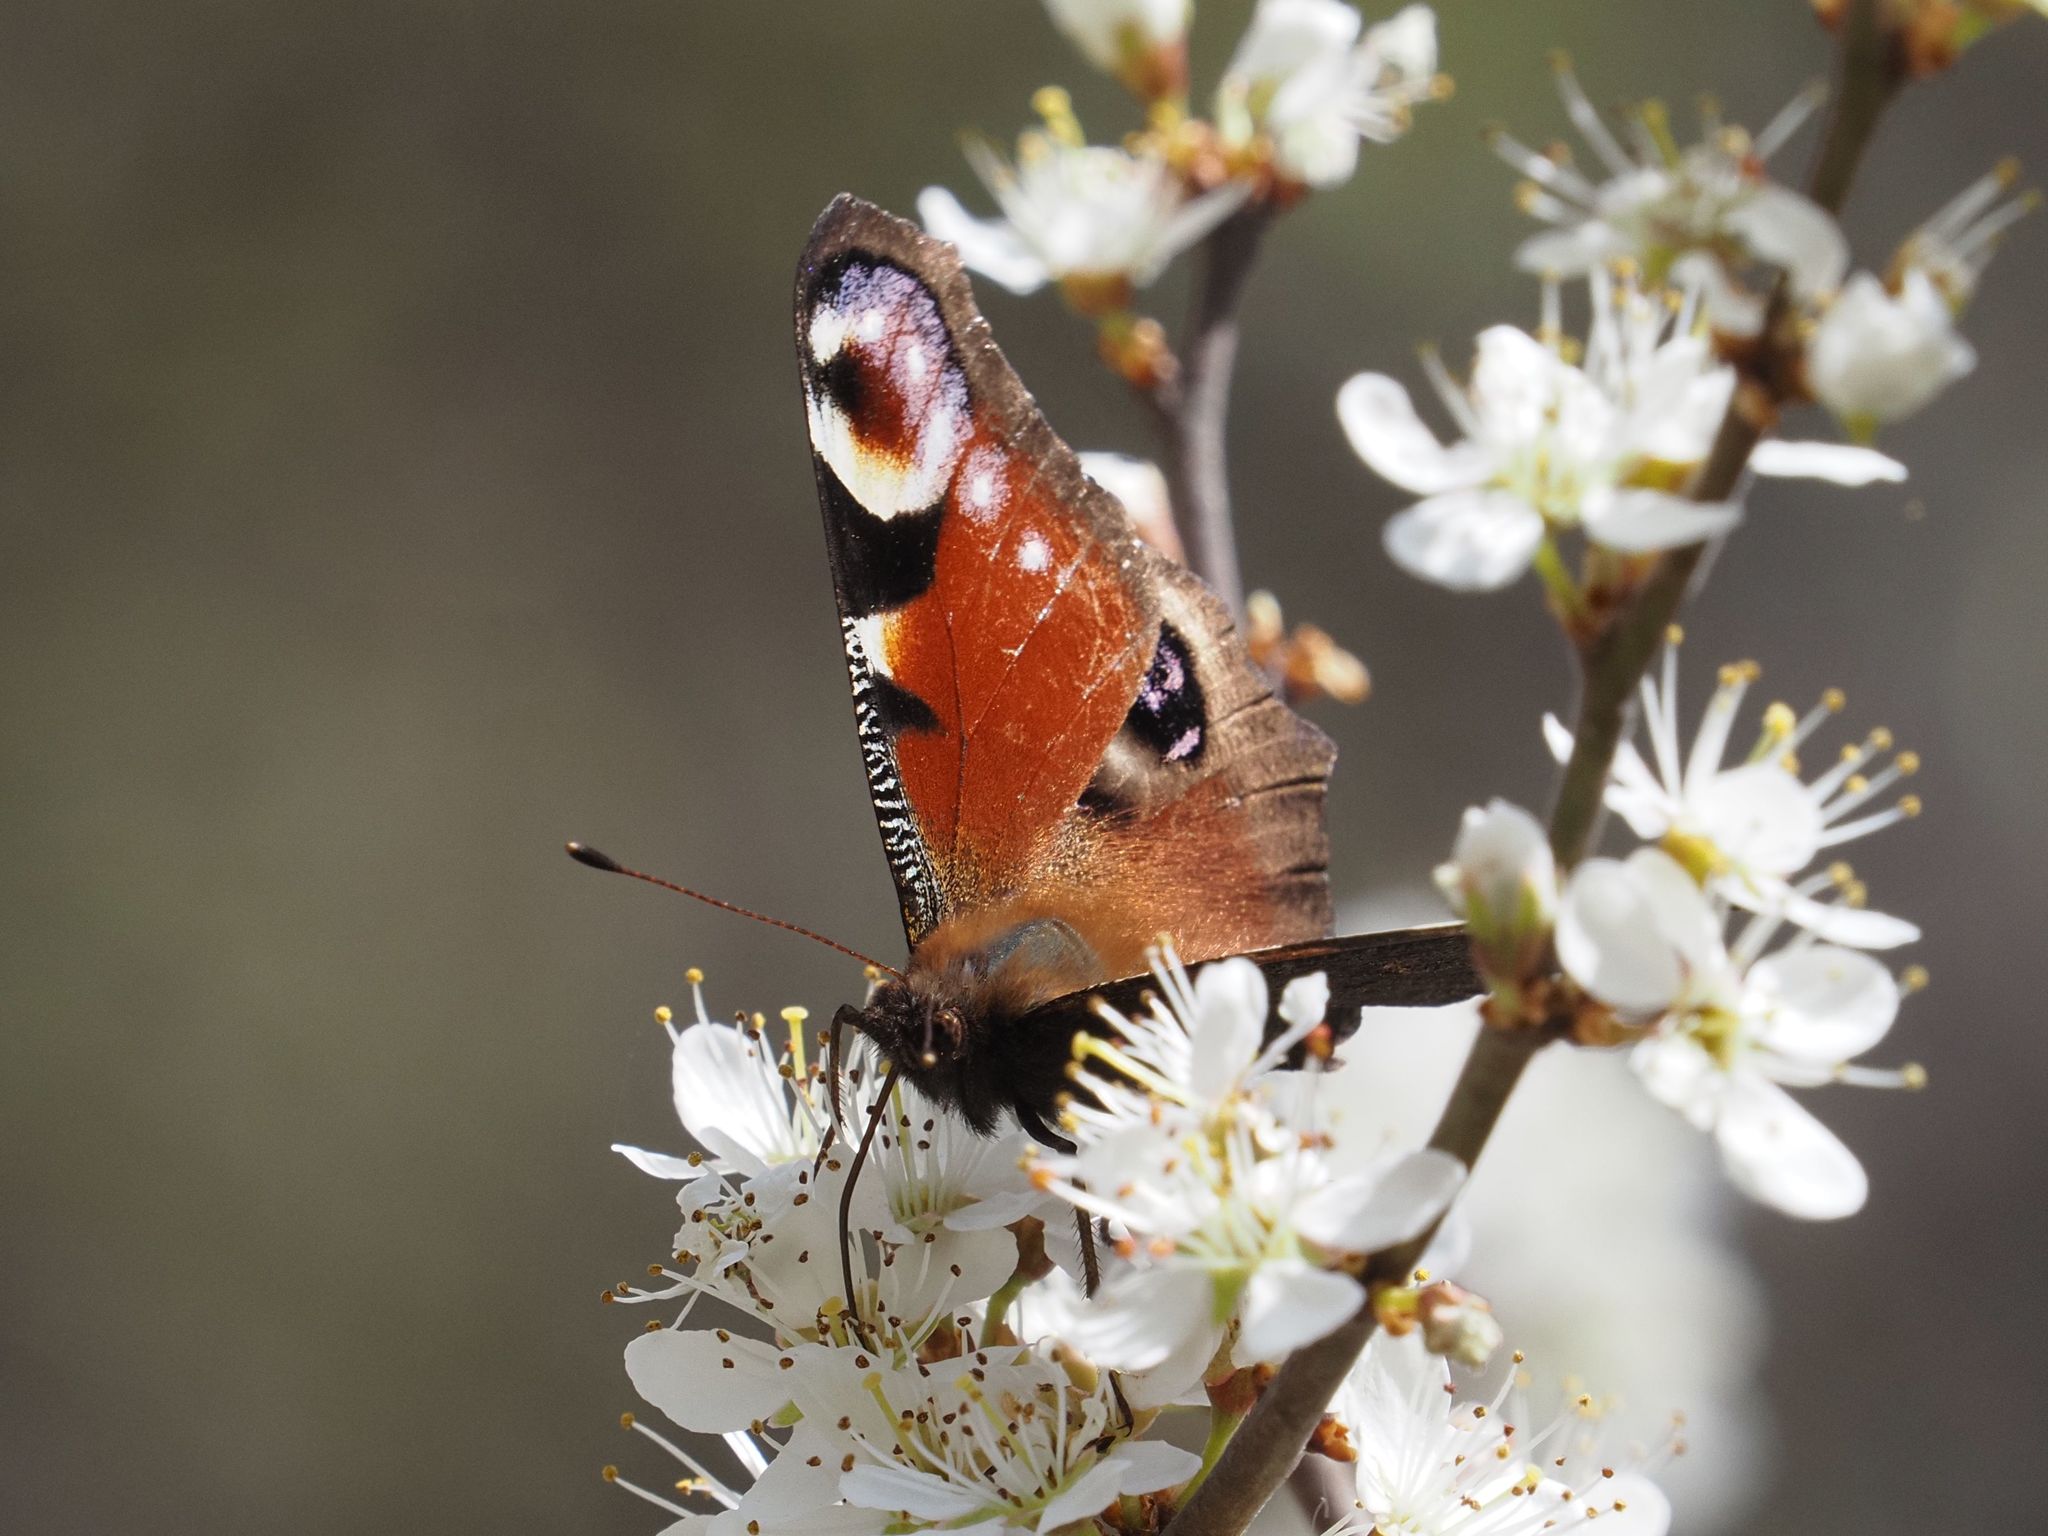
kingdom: Animalia
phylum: Arthropoda
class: Insecta
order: Lepidoptera
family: Nymphalidae
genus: Aglais
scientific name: Aglais io
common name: Peacock
